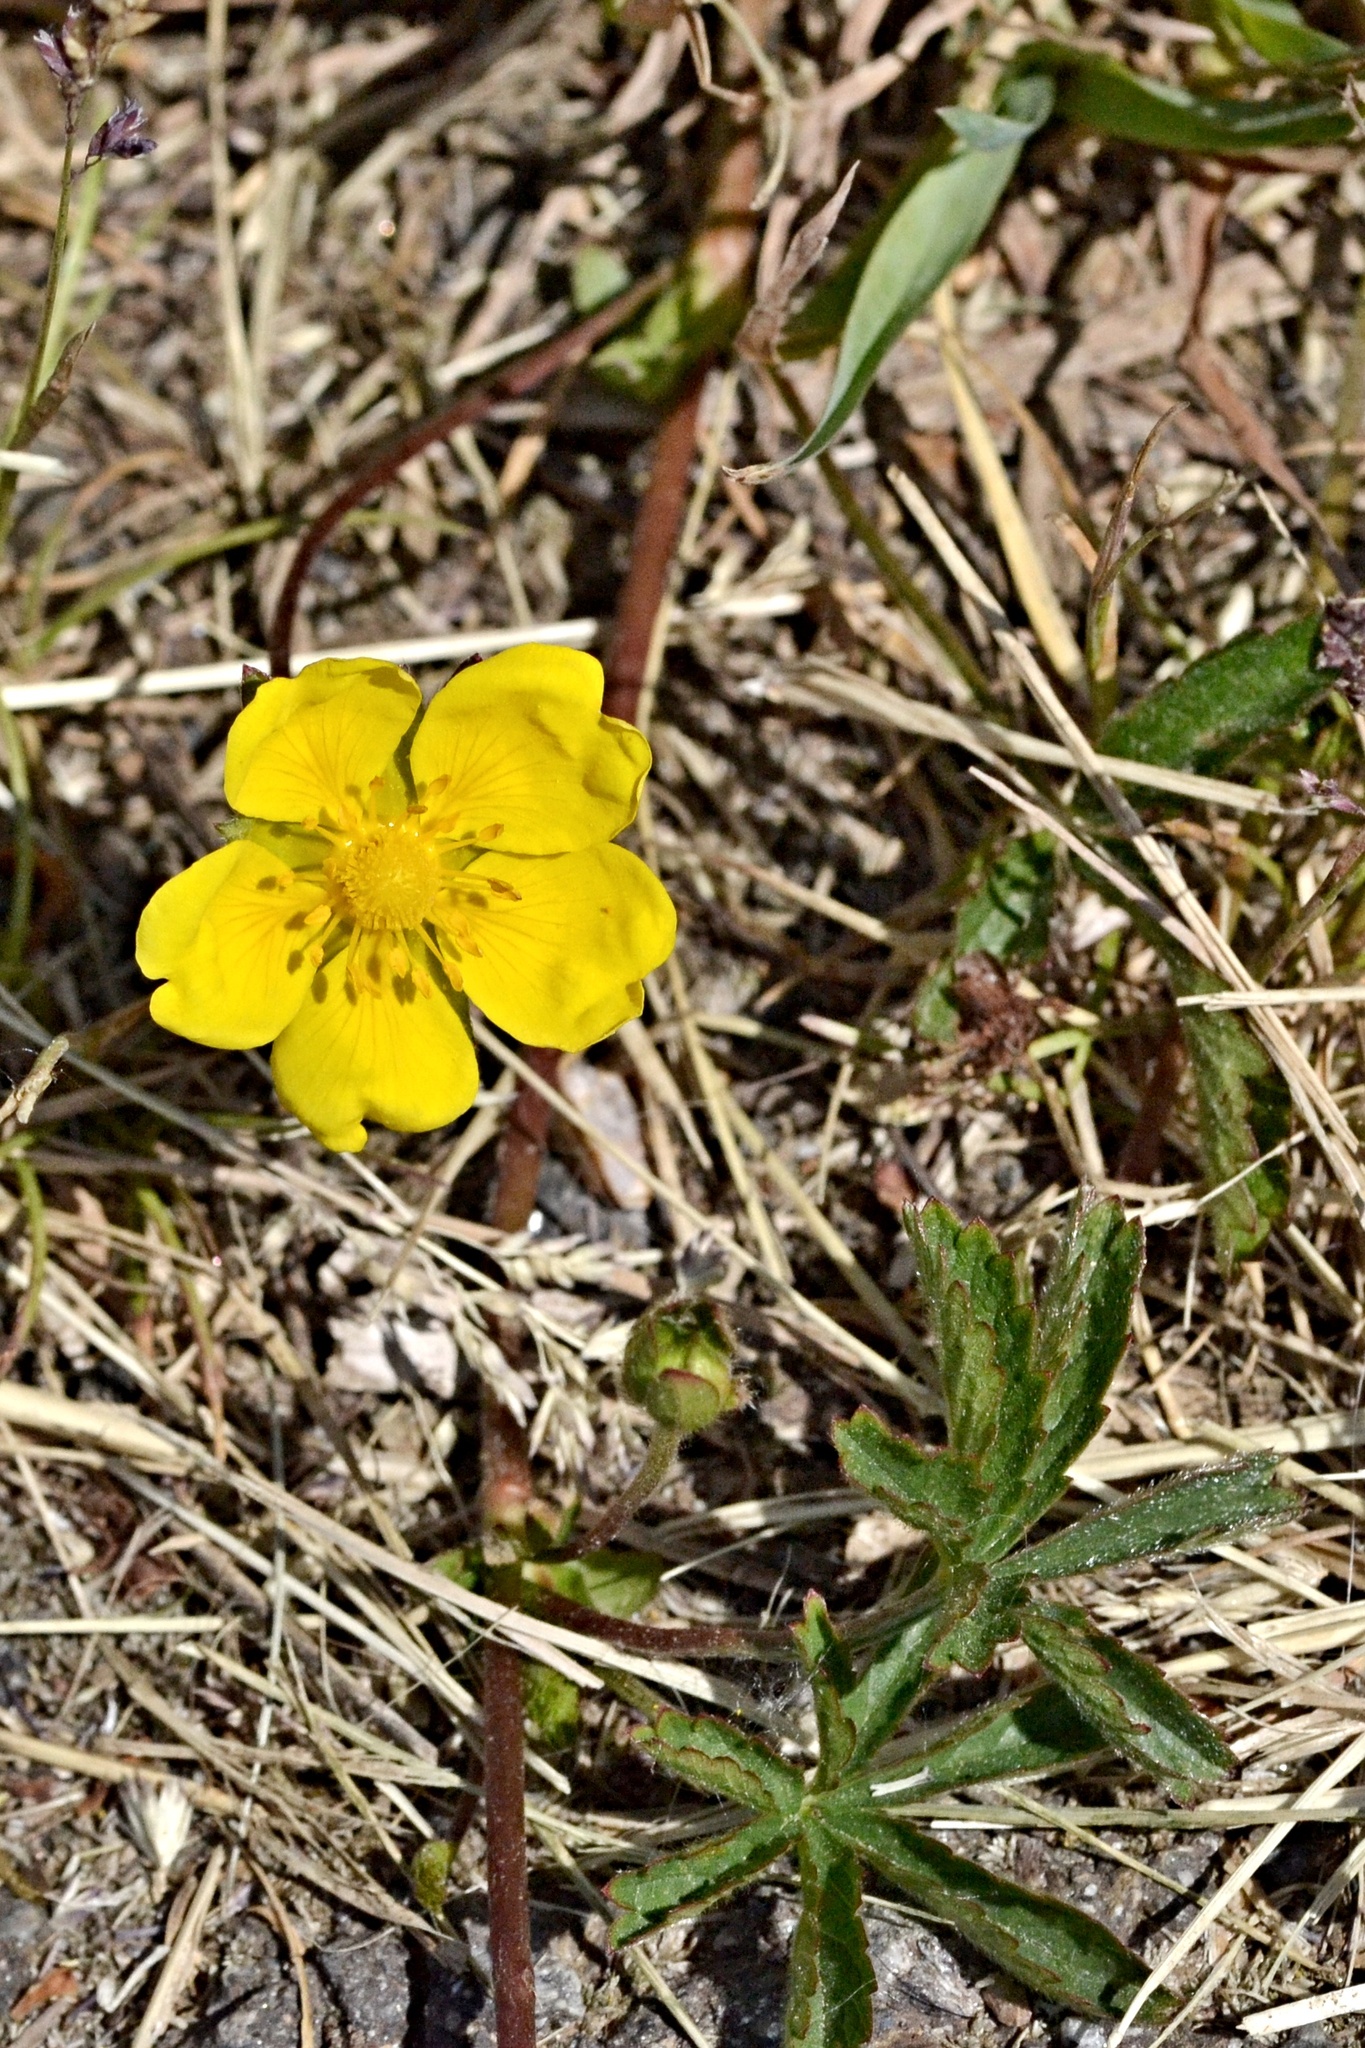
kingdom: Plantae
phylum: Tracheophyta
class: Magnoliopsida
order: Rosales
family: Rosaceae
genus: Potentilla
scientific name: Potentilla reptans
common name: Creeping cinquefoil
